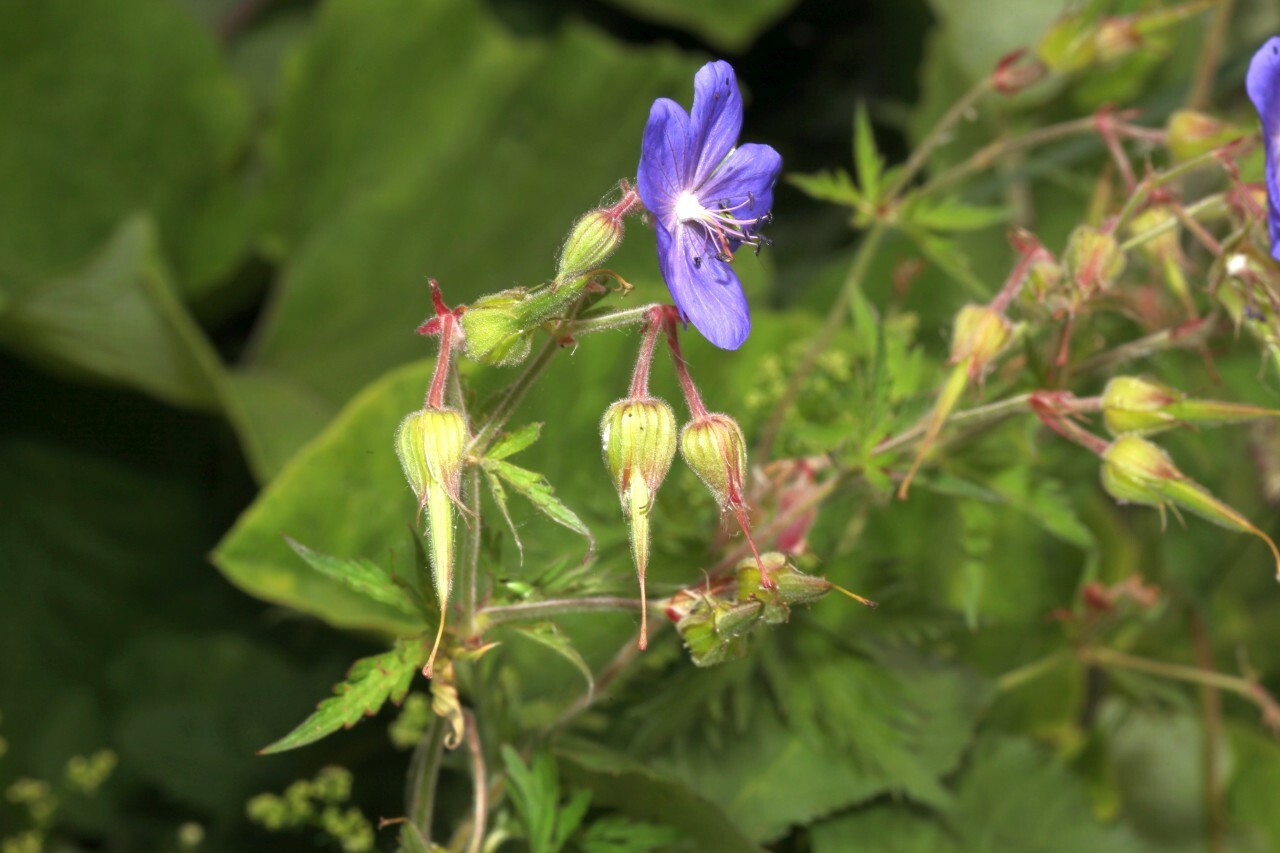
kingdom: Plantae
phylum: Tracheophyta
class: Magnoliopsida
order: Geraniales
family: Geraniaceae
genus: Geranium
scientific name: Geranium pratense
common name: Meadow crane's-bill
